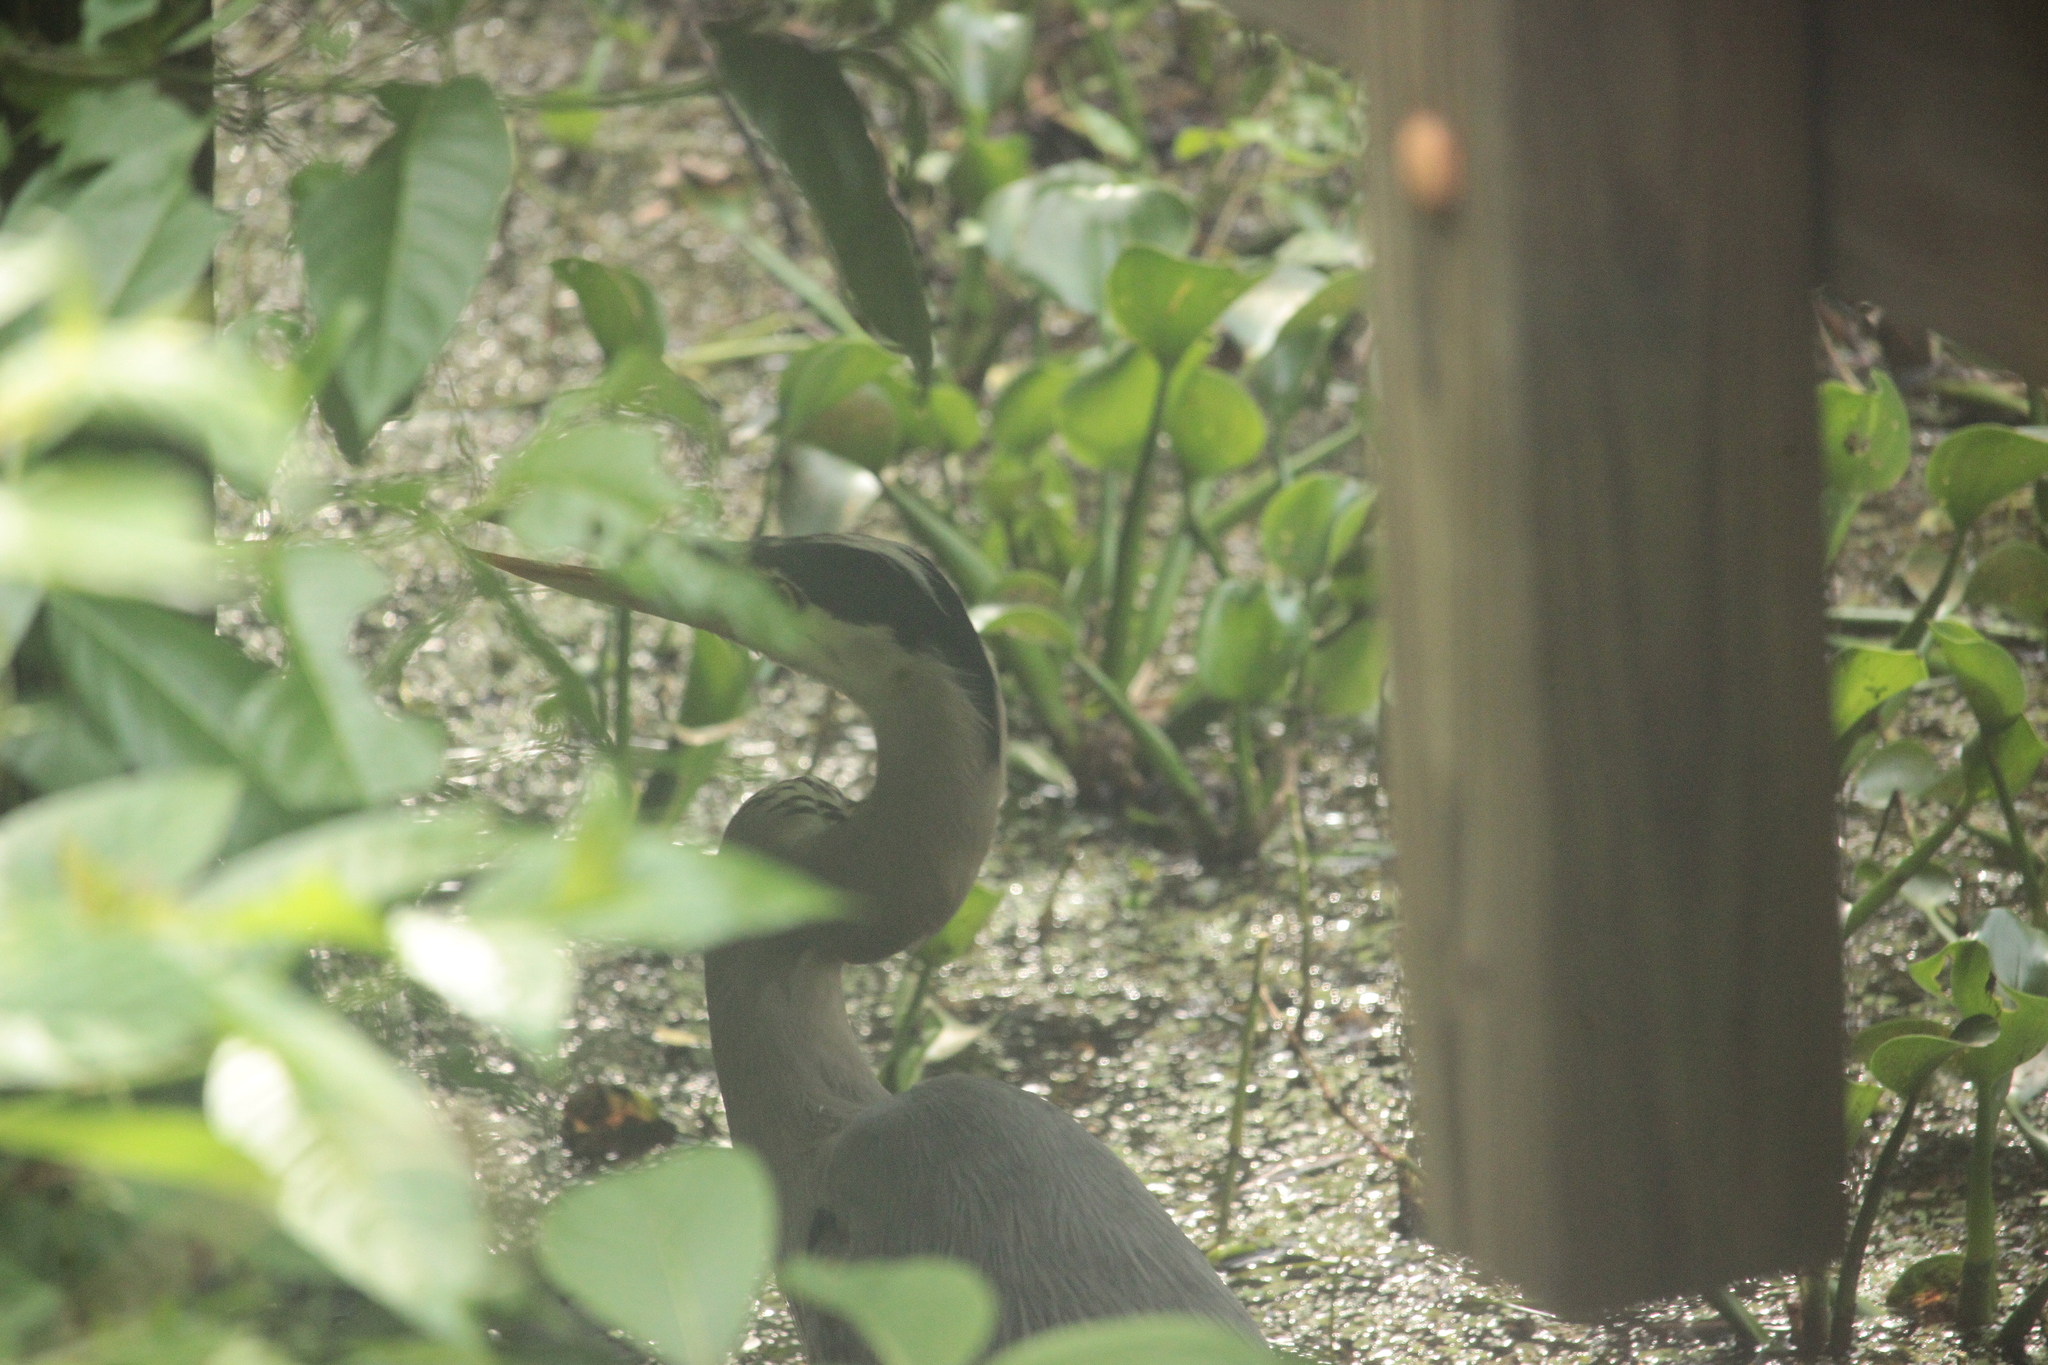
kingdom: Animalia
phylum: Chordata
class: Aves
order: Pelecaniformes
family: Ardeidae
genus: Ardea
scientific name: Ardea herodias
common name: Great blue heron
